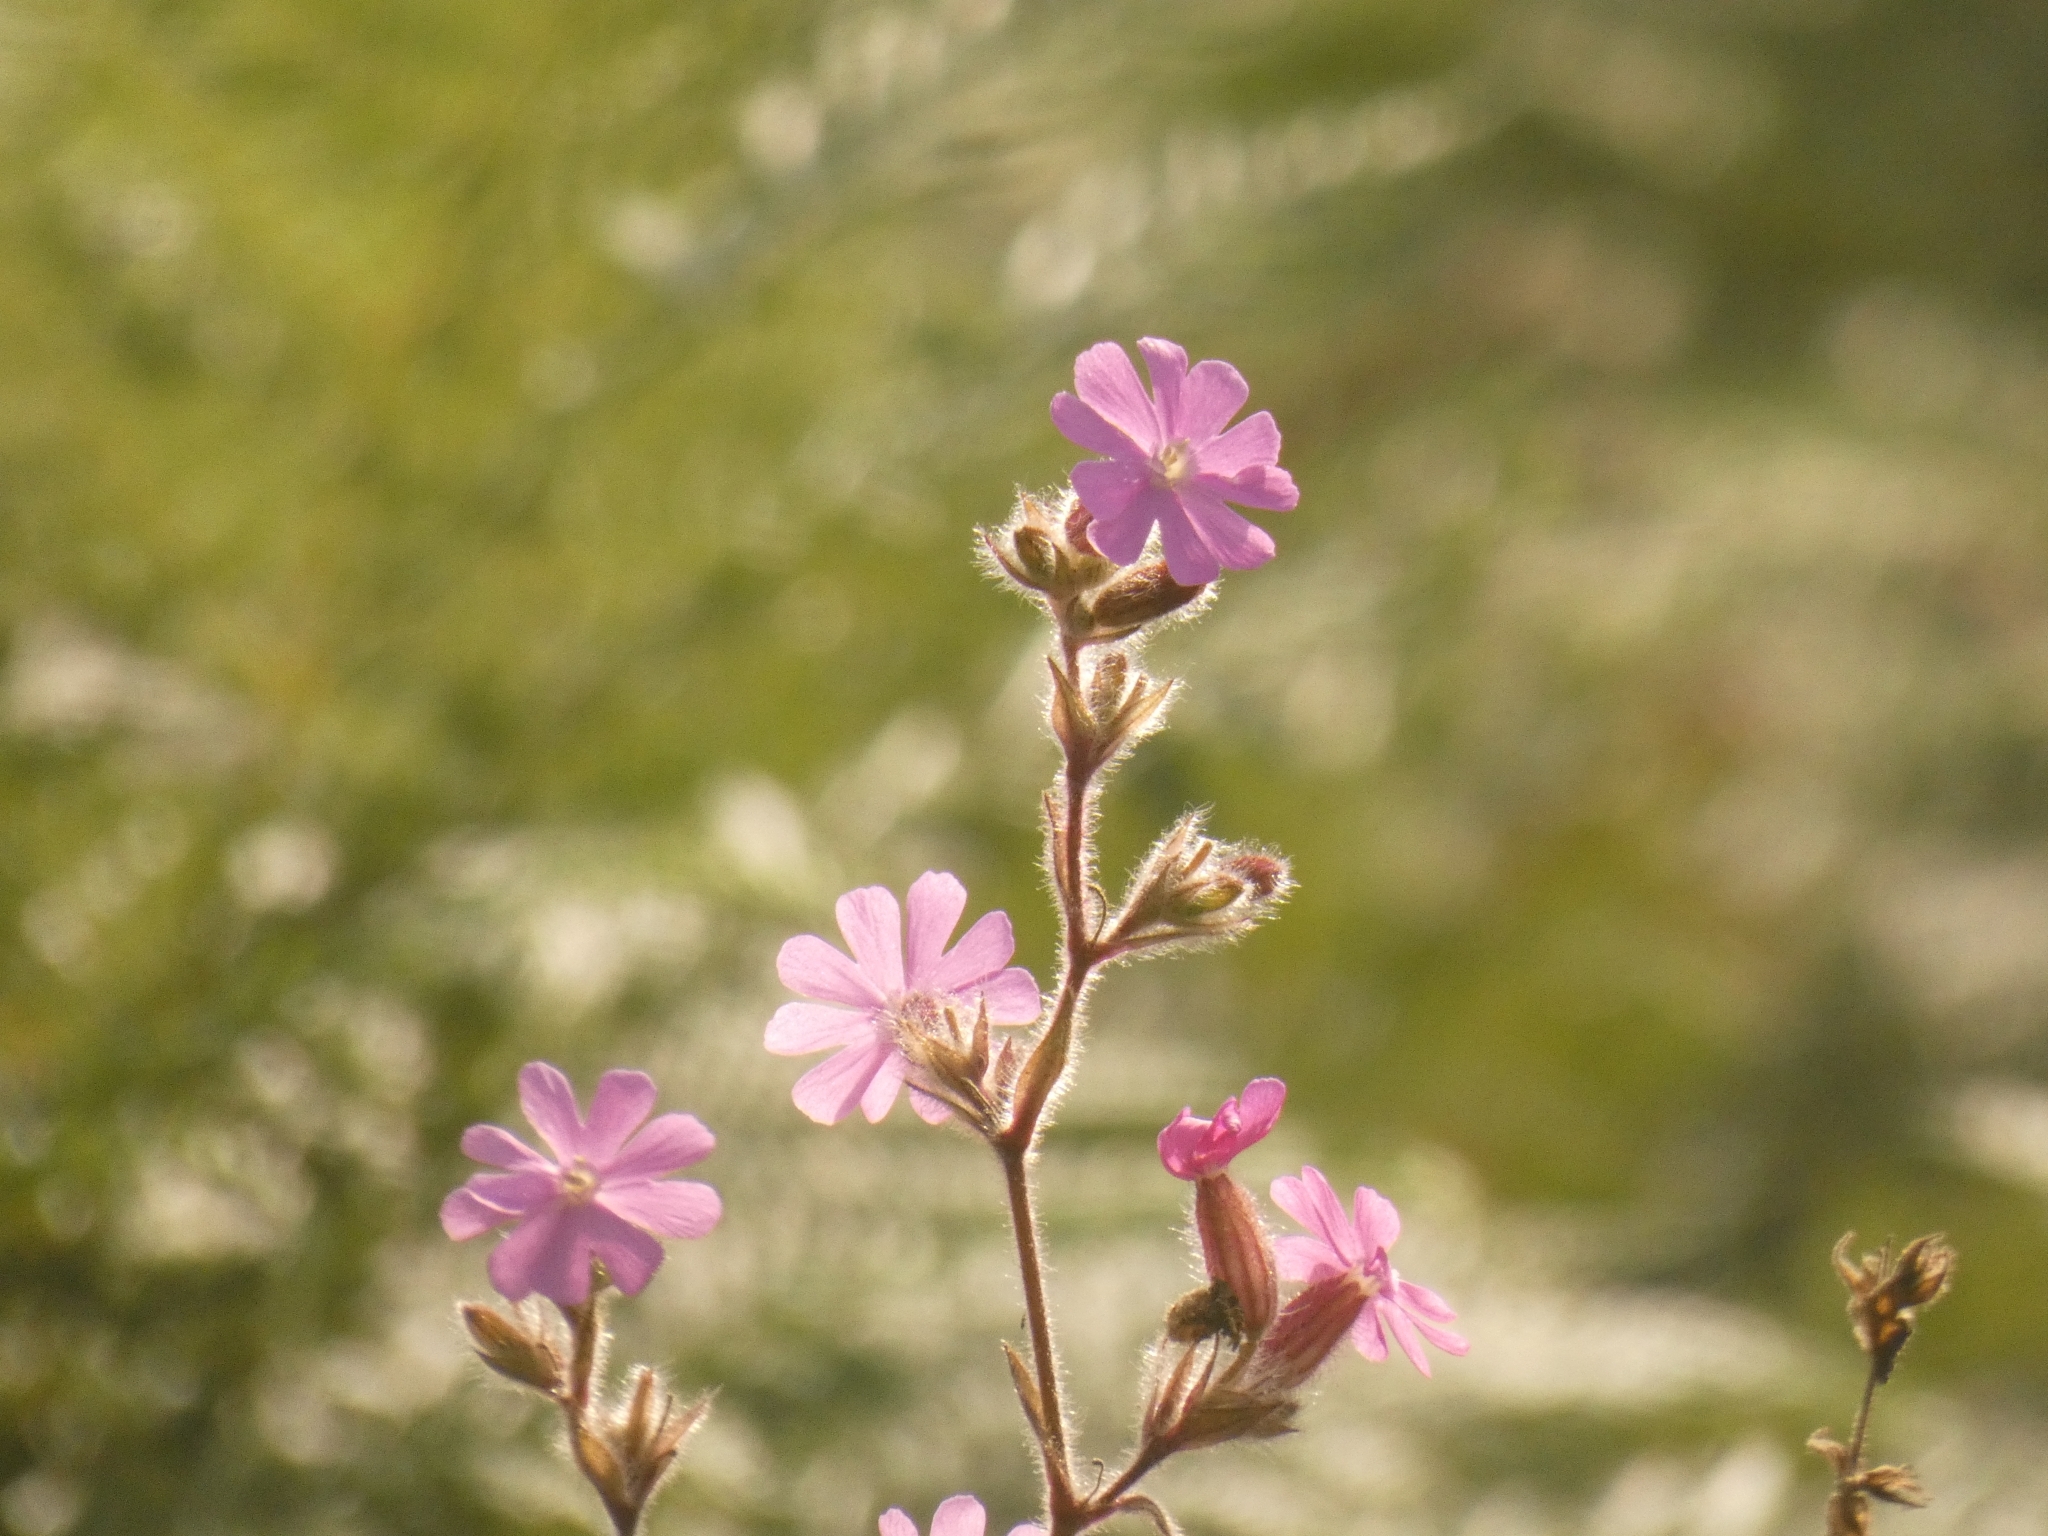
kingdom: Plantae
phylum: Tracheophyta
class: Magnoliopsida
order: Caryophyllales
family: Caryophyllaceae
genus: Silene
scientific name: Silene dioica
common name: Red campion
